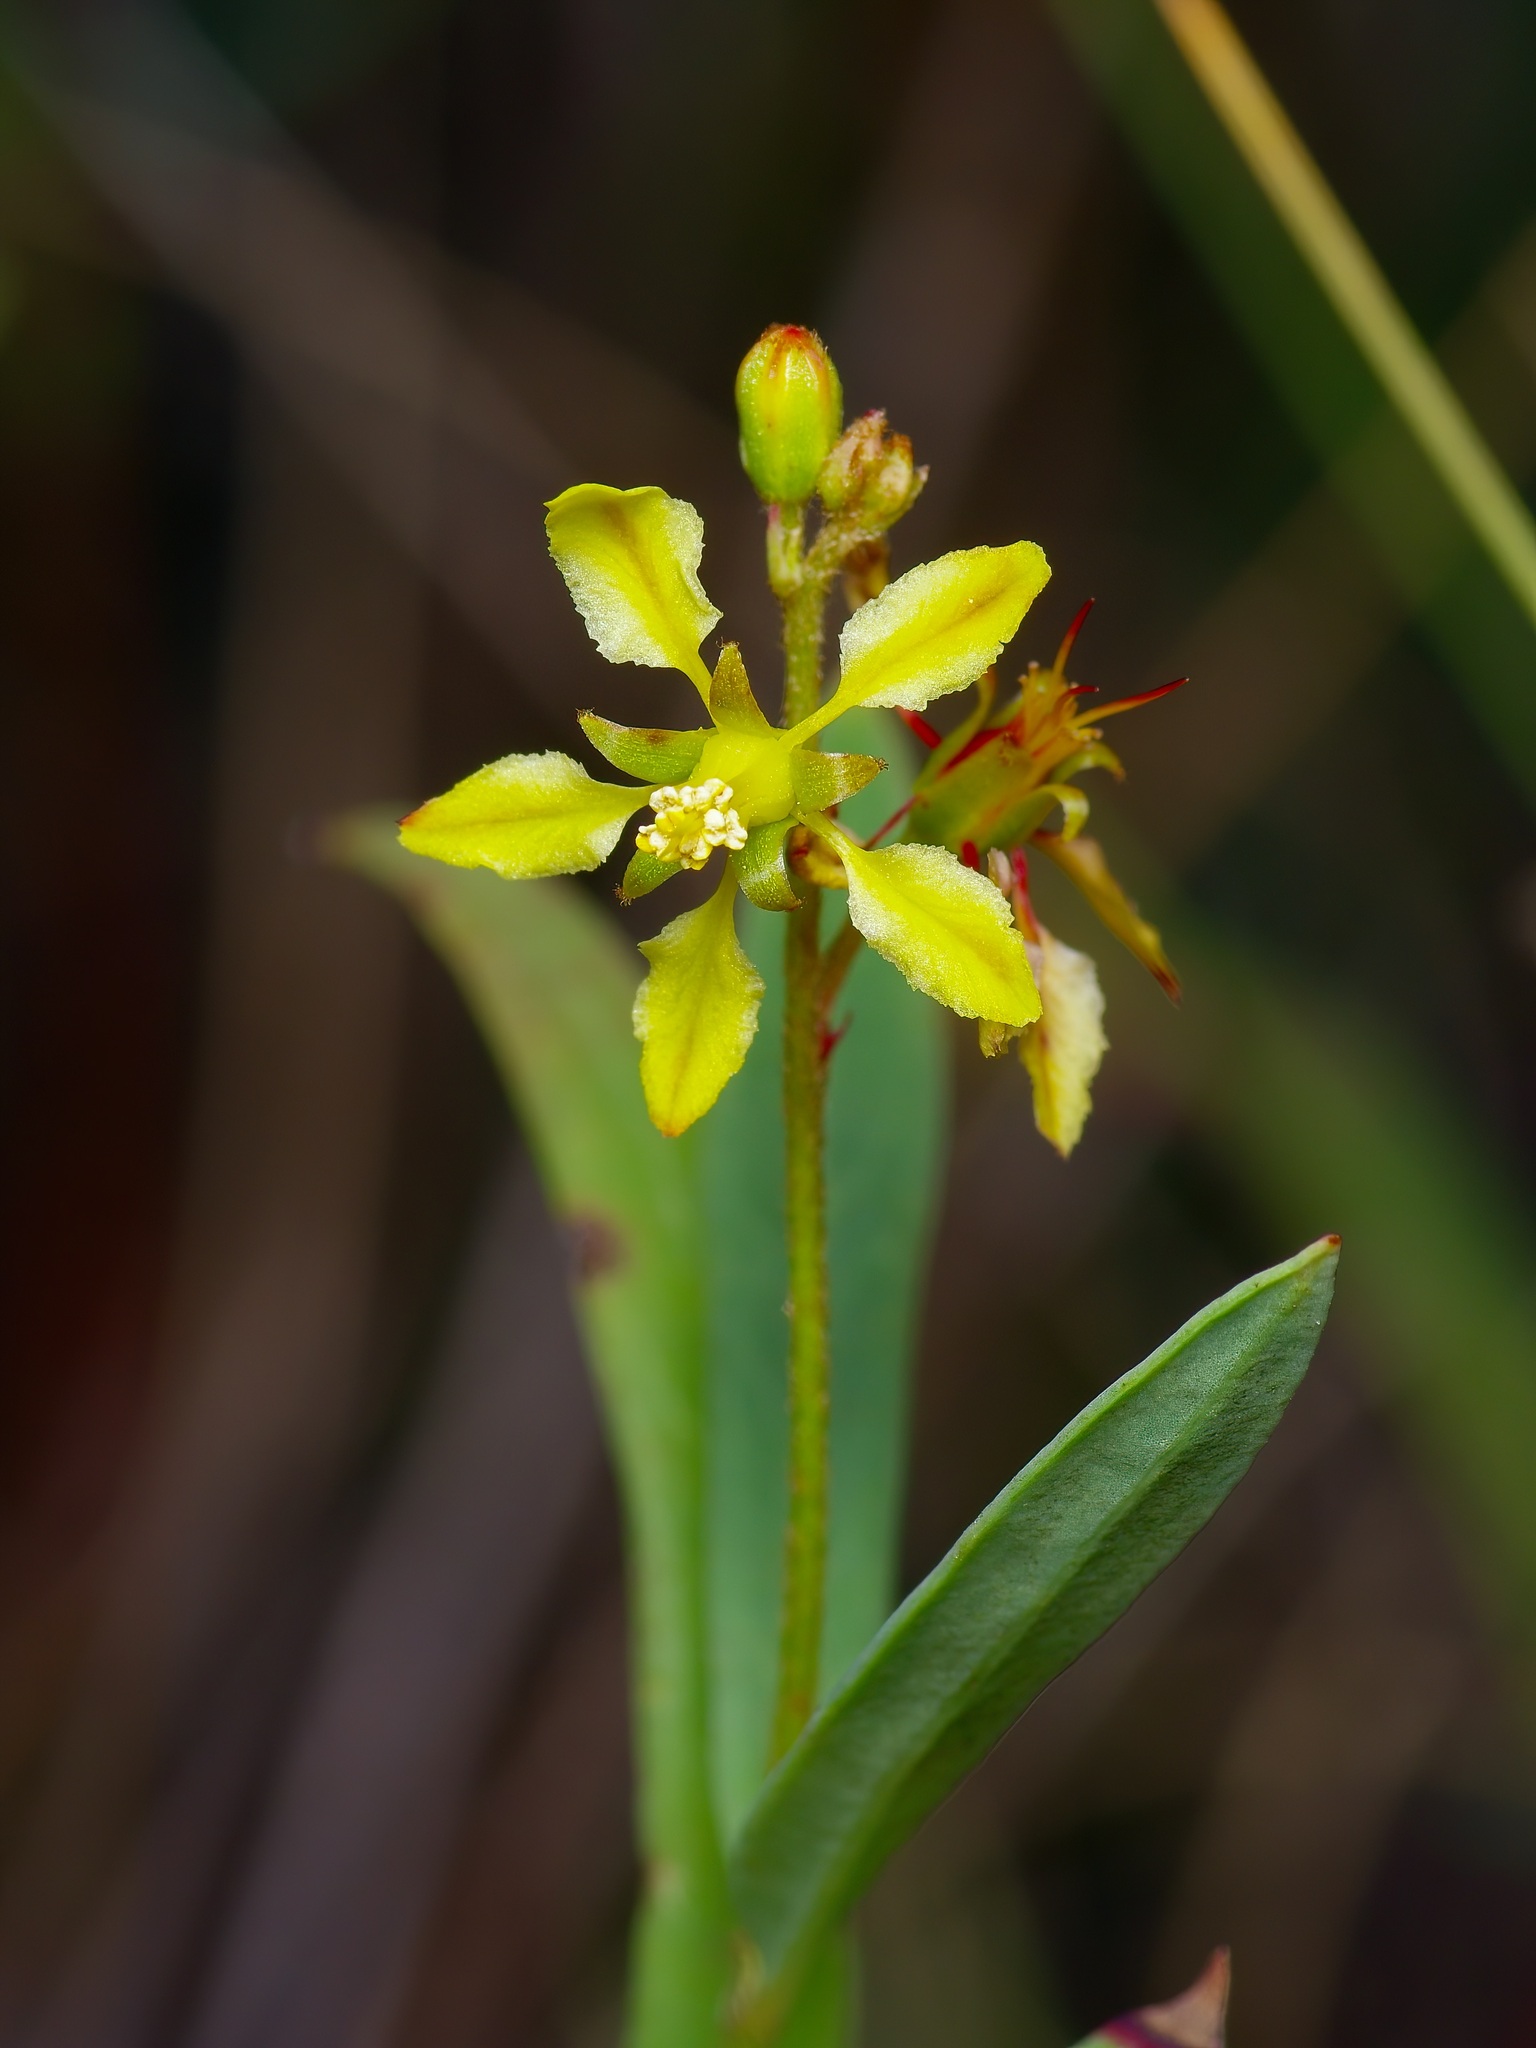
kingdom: Plantae
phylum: Tracheophyta
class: Magnoliopsida
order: Malpighiales
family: Malpighiaceae
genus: Galphimia
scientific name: Galphimia angustifolia
